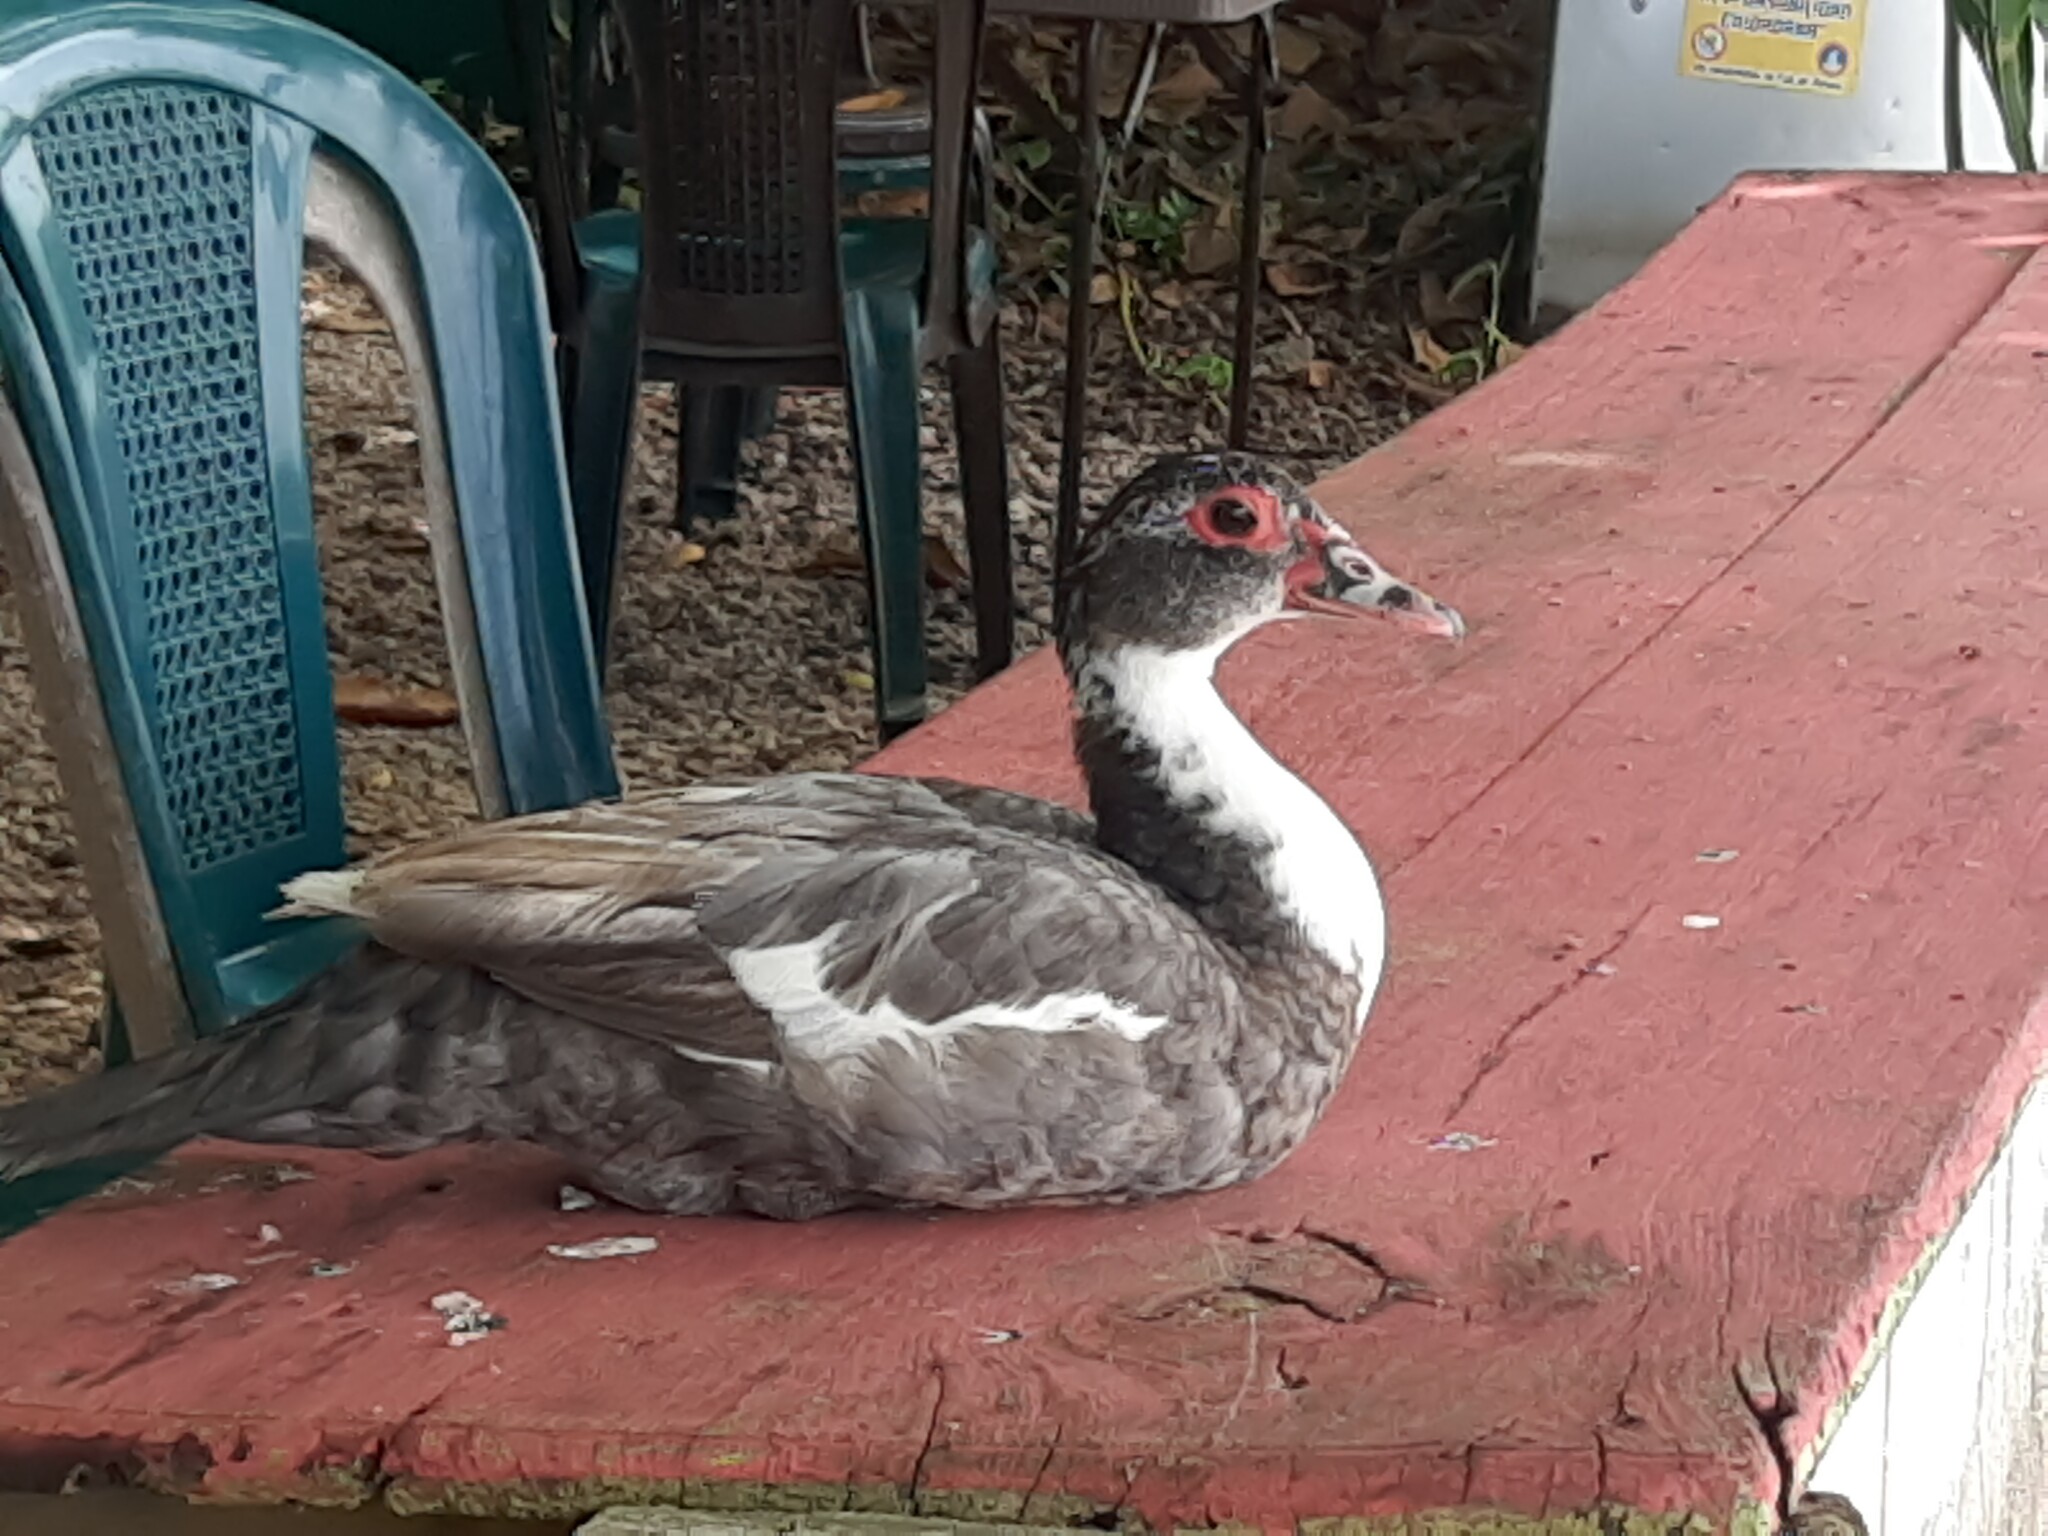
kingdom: Animalia
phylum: Chordata
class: Aves
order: Anseriformes
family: Anatidae
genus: Cairina
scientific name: Cairina moschata
